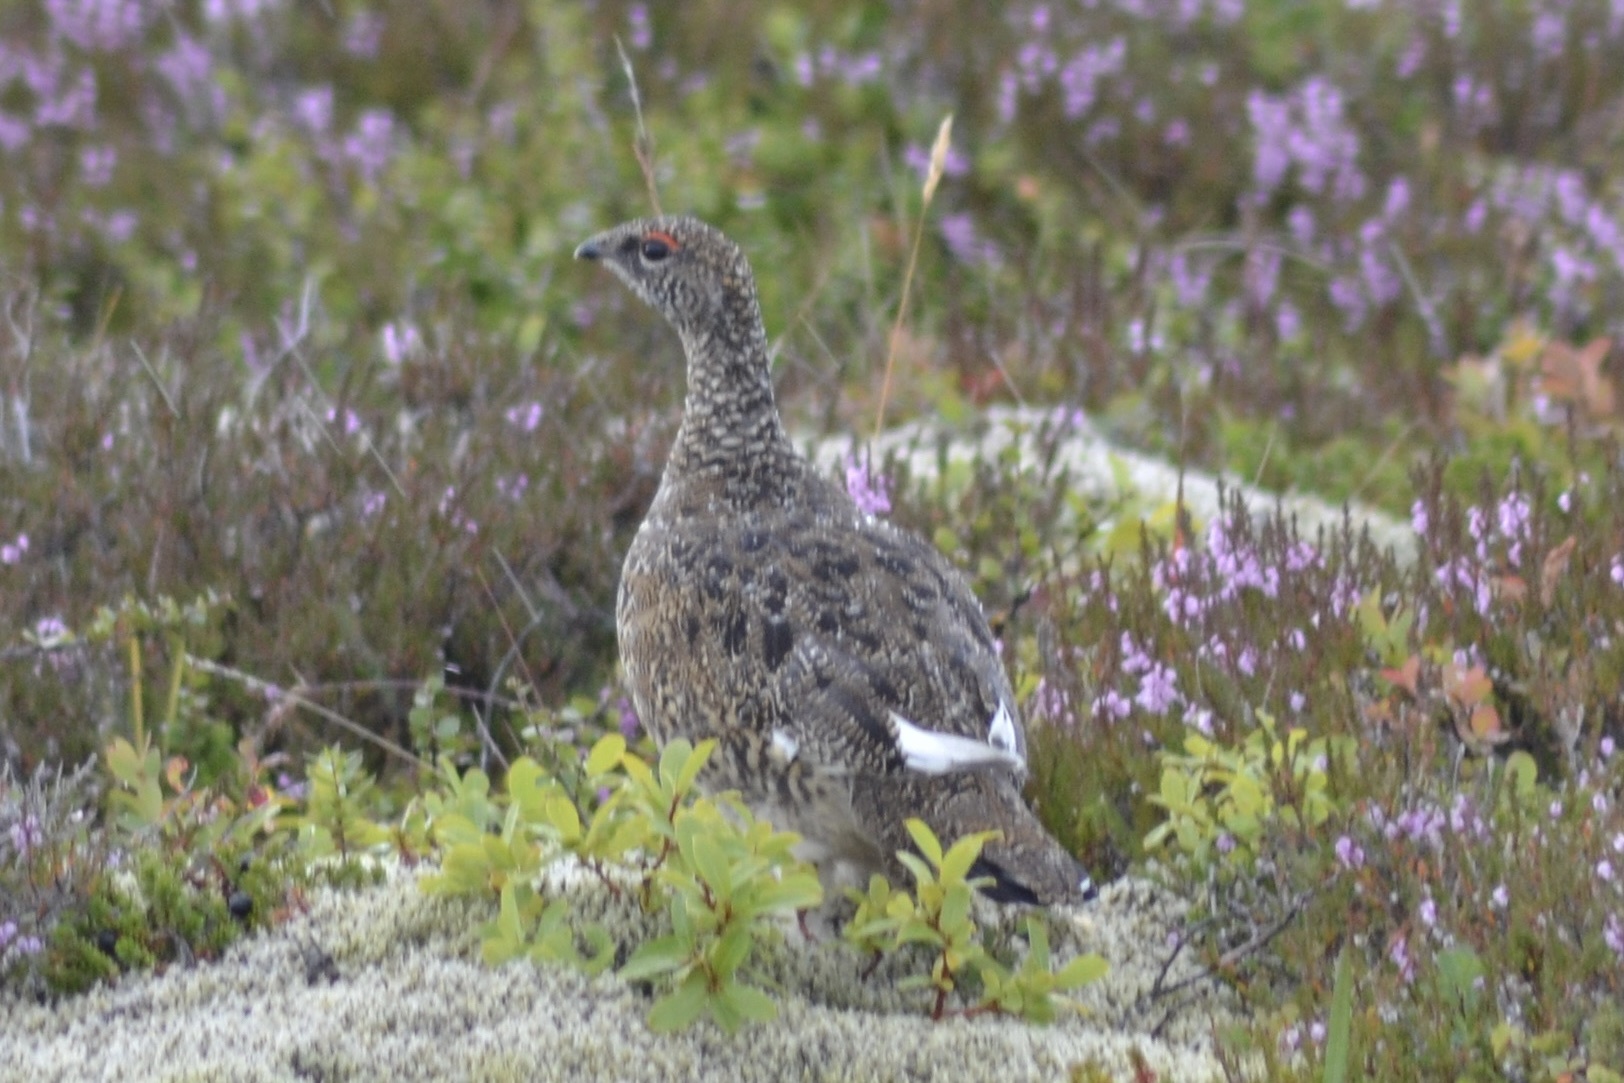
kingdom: Animalia
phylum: Chordata
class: Aves
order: Galliformes
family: Phasianidae
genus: Lagopus
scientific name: Lagopus muta
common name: Rock ptarmigan
